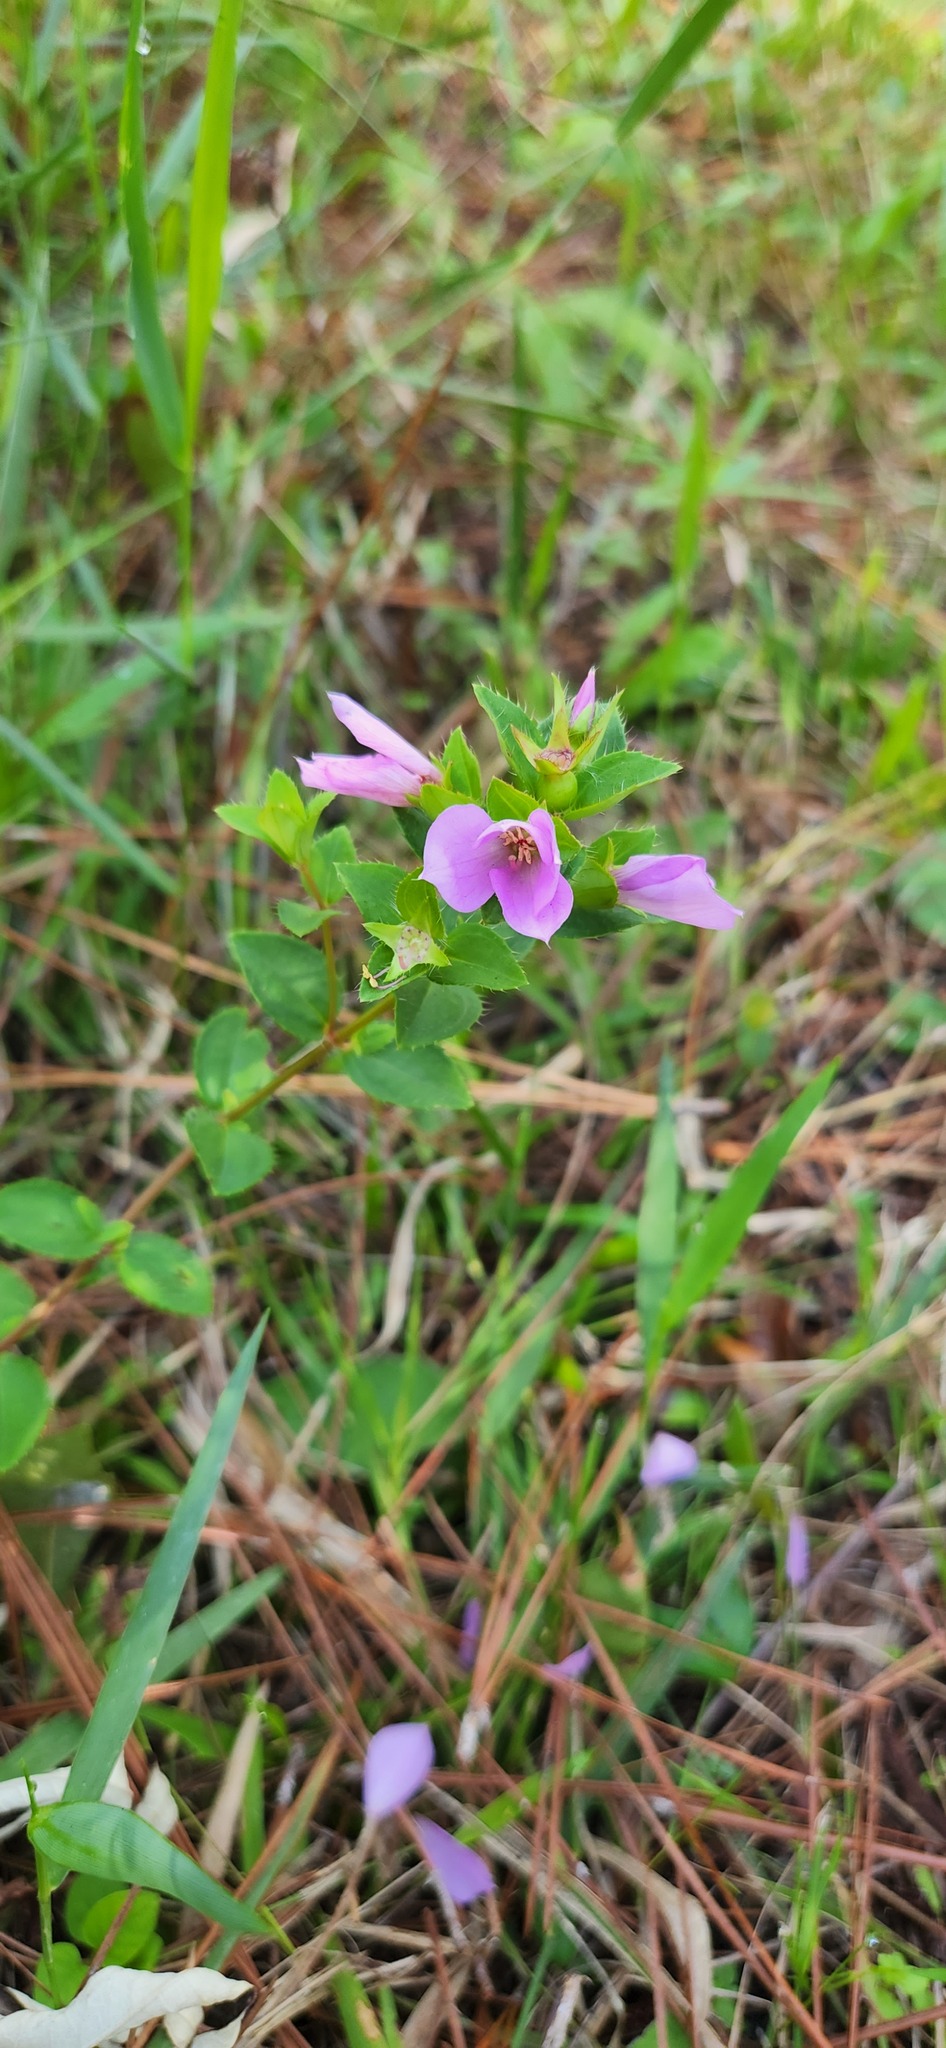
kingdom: Plantae
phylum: Tracheophyta
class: Magnoliopsida
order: Myrtales
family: Melastomataceae
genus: Rhexia
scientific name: Rhexia petiolata
